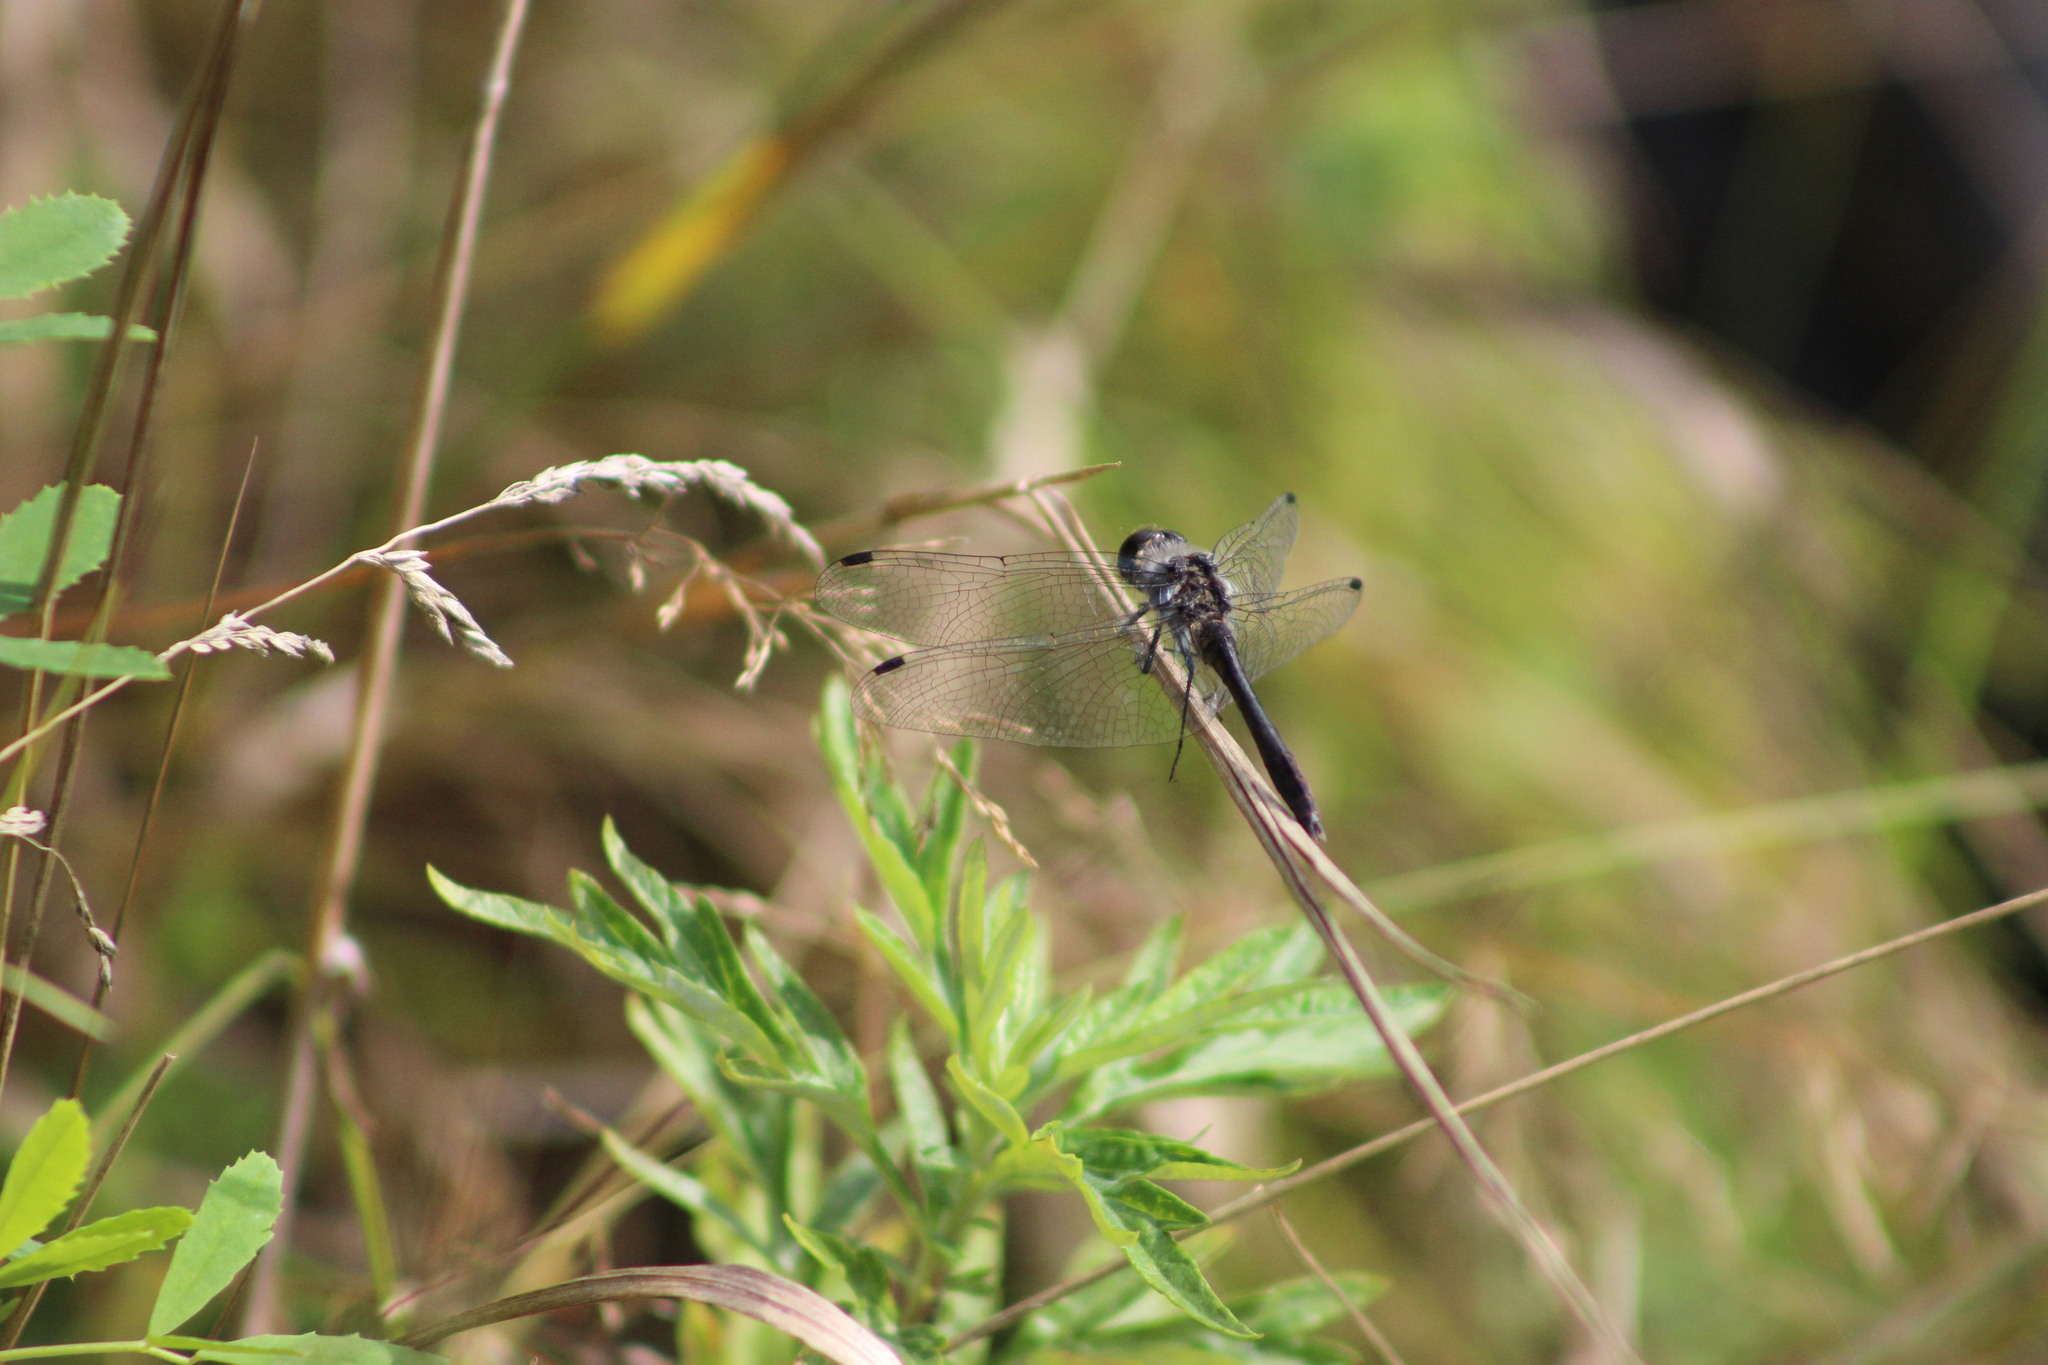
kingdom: Animalia
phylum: Arthropoda
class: Insecta
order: Odonata
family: Libellulidae
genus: Sympetrum
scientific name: Sympetrum danae
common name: Black darter
